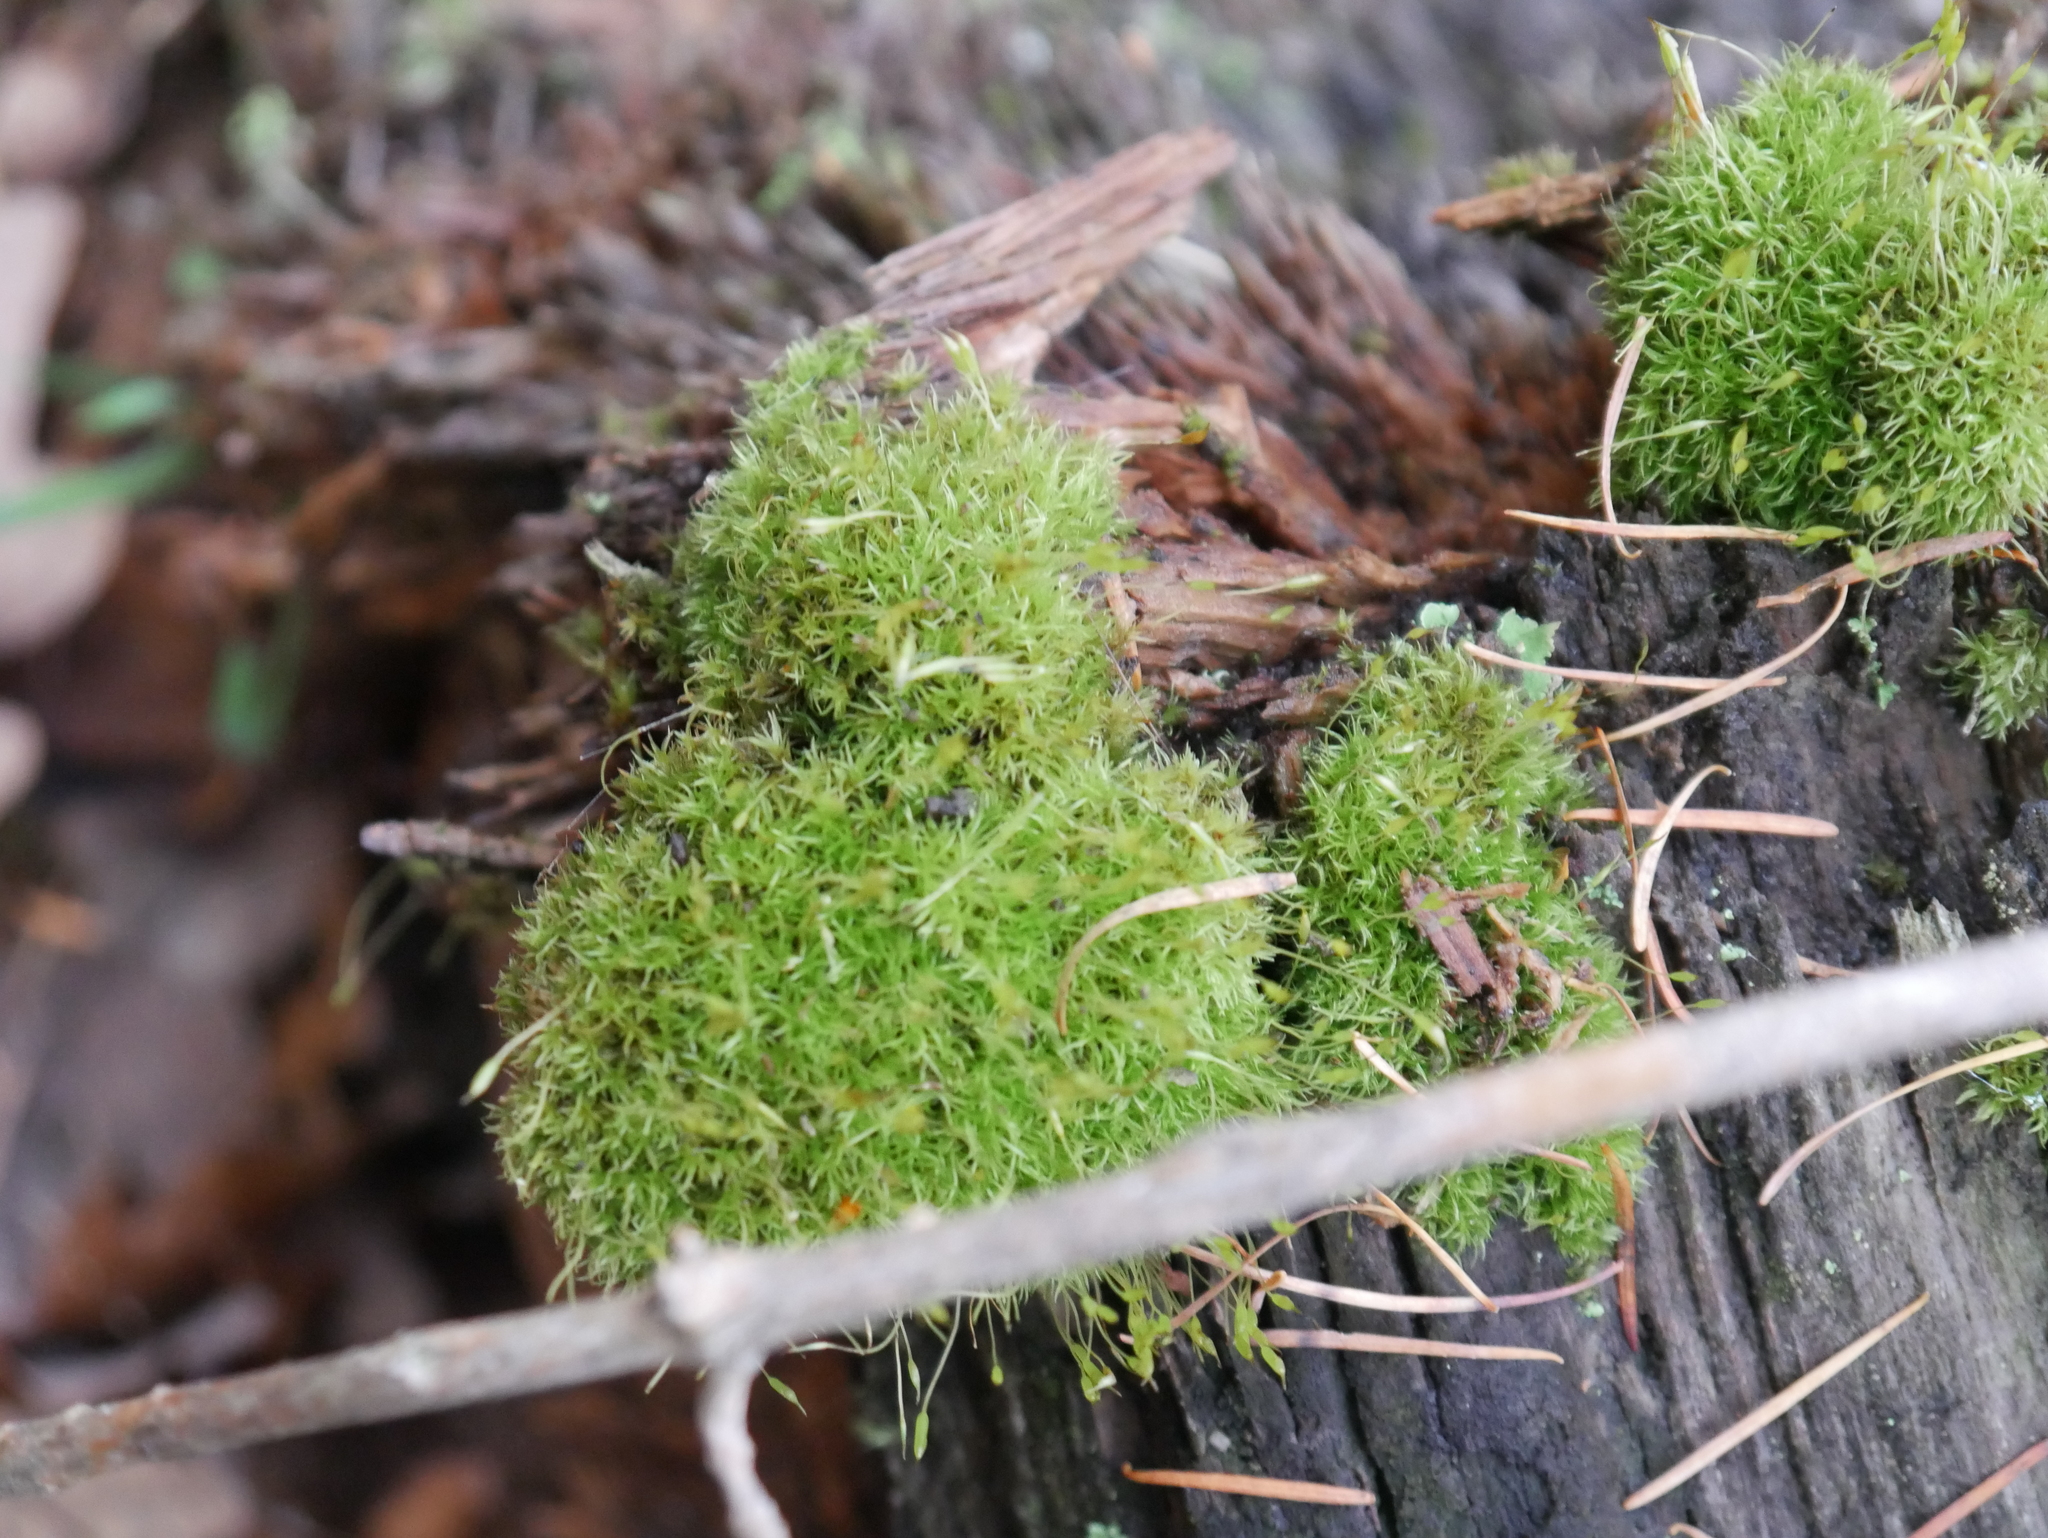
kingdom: Plantae
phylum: Bryophyta
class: Bryopsida
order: Dicranales
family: Rhabdoweisiaceae
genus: Dicranoweisia
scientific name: Dicranoweisia cirrata
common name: Common pincushion
